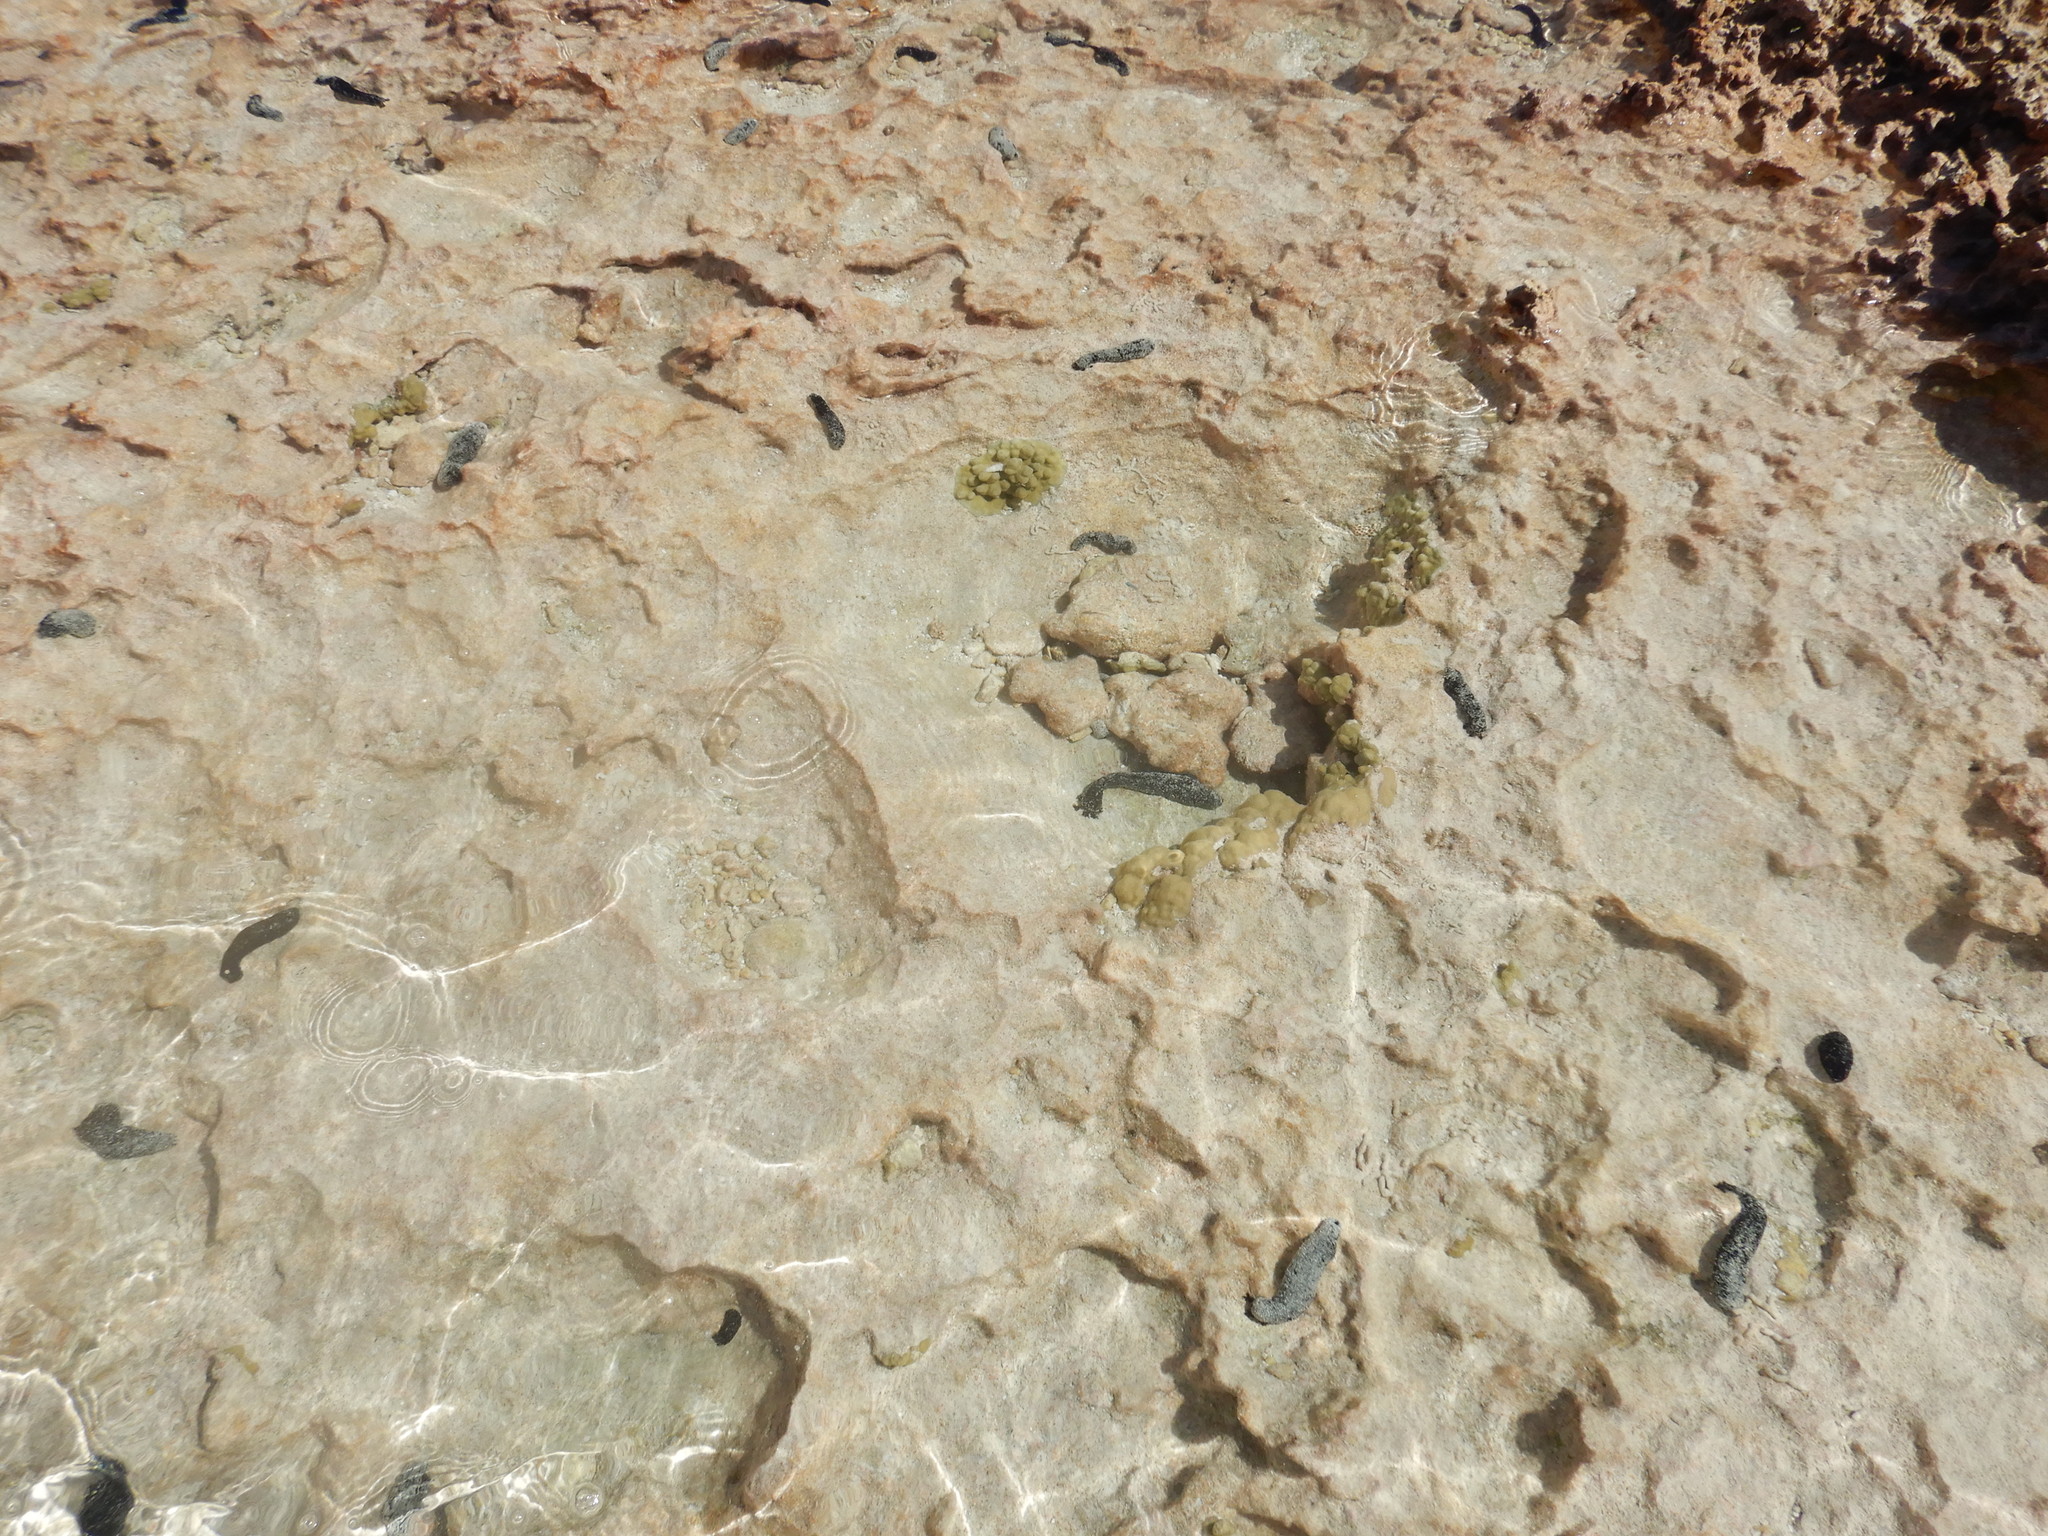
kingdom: Animalia
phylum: Echinodermata
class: Holothuroidea
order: Holothuriida
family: Holothuriidae
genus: Holothuria
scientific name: Holothuria atra
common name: Lollyfish
